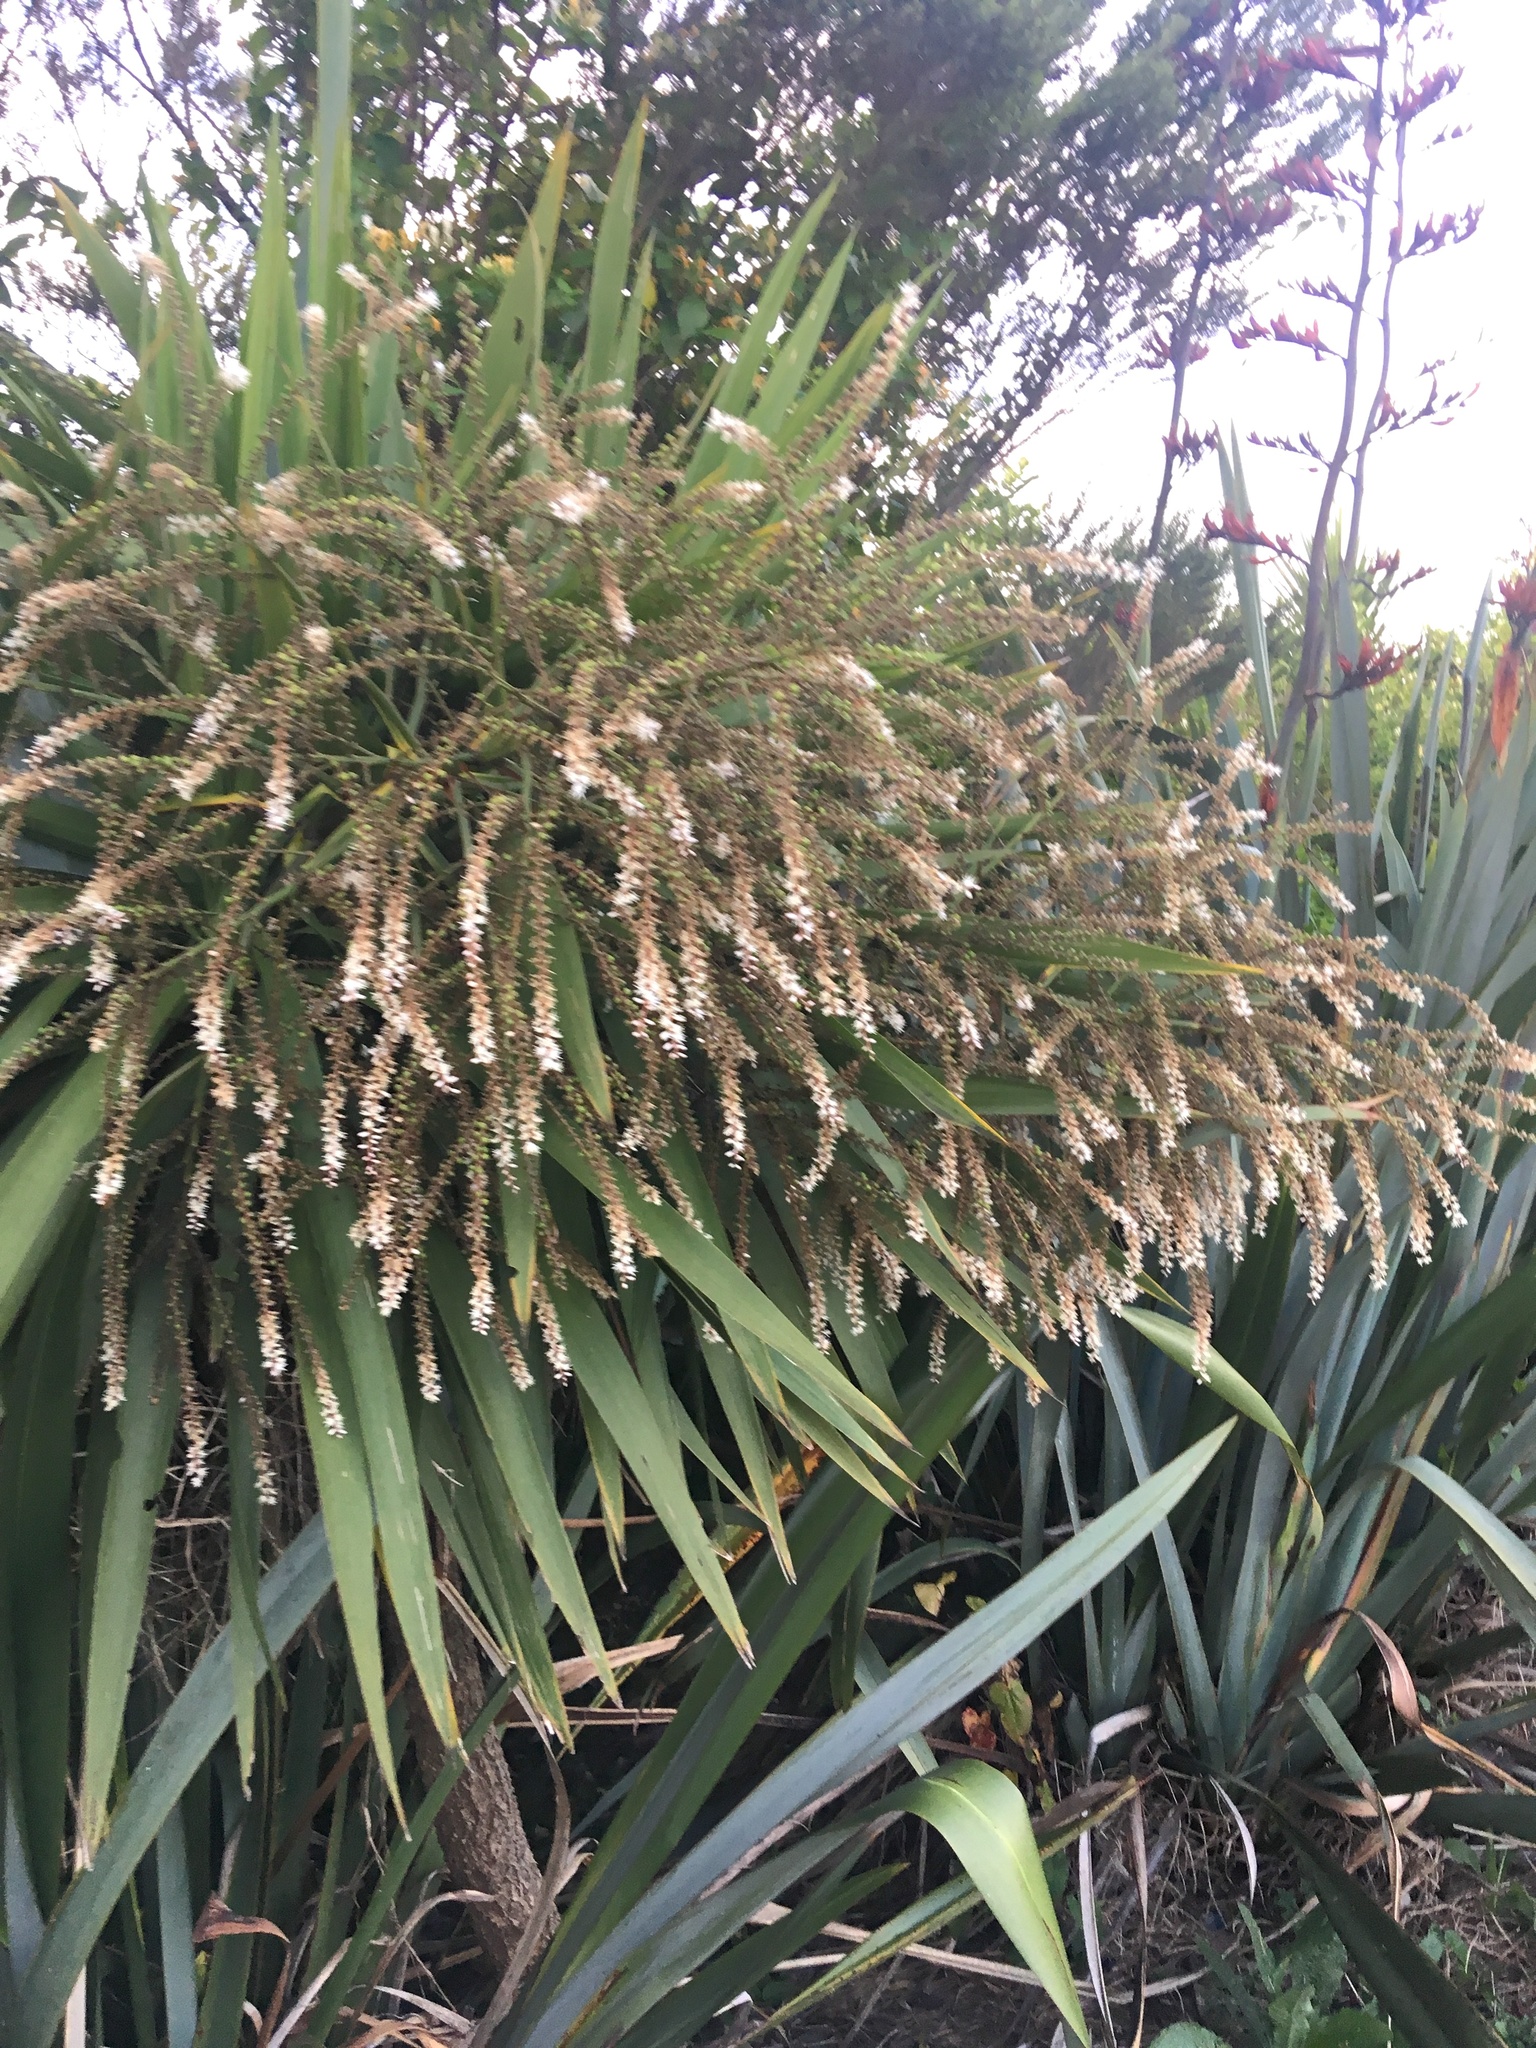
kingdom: Plantae
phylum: Tracheophyta
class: Liliopsida
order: Asparagales
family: Asparagaceae
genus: Cordyline
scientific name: Cordyline australis
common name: Cabbage-palm
